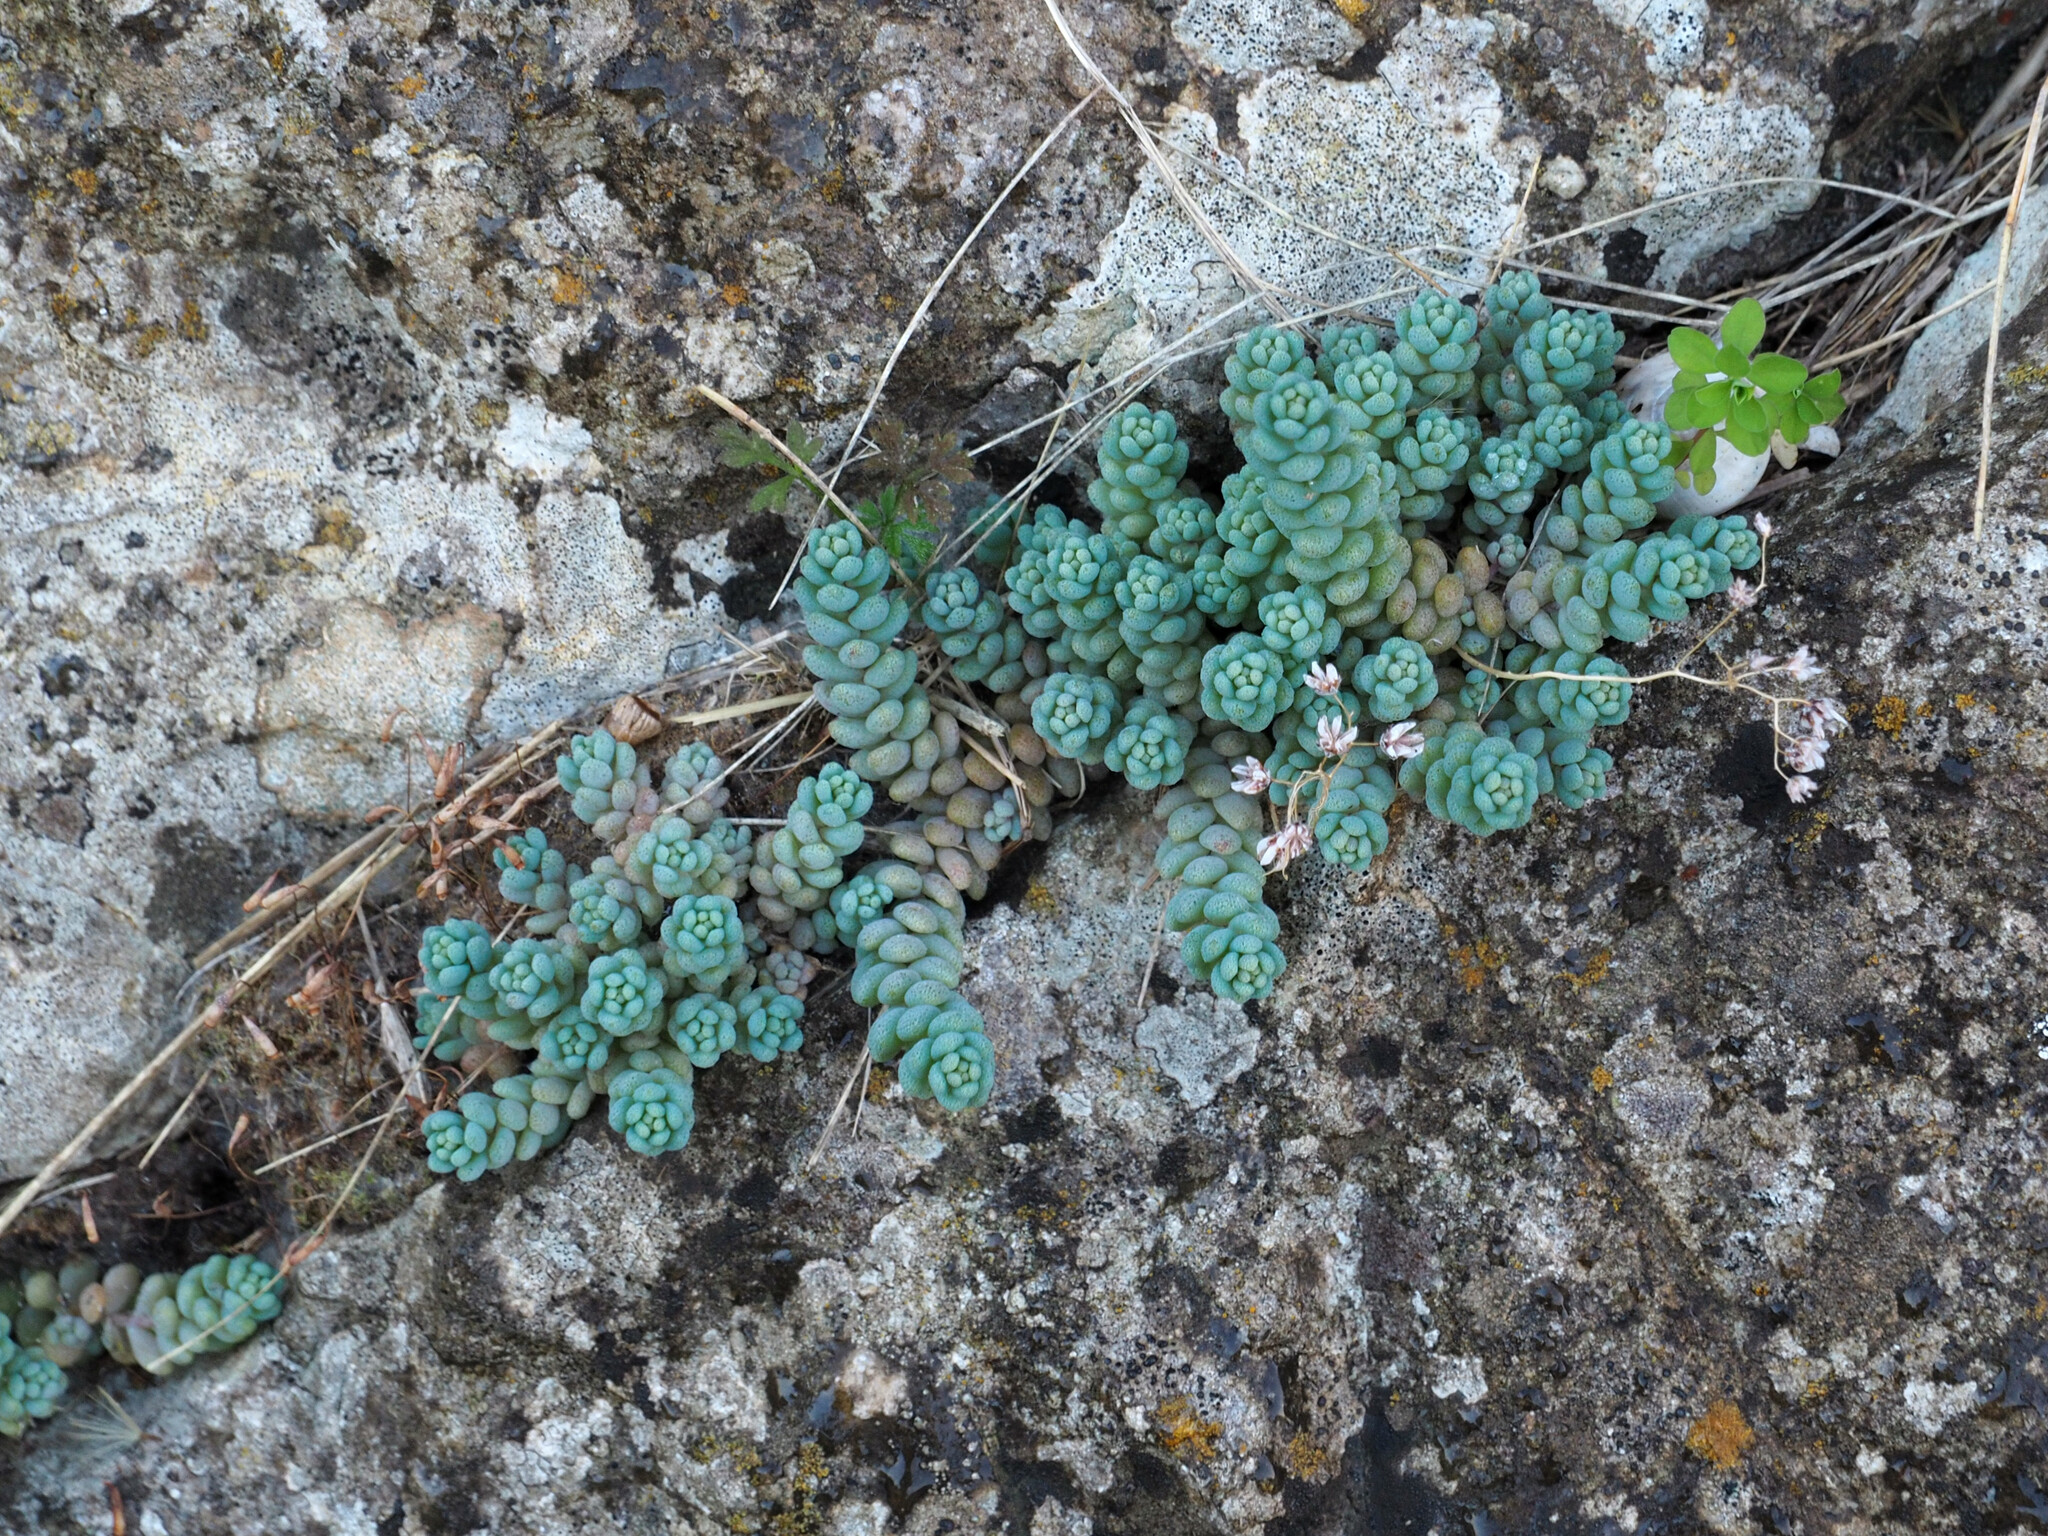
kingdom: Plantae
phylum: Tracheophyta
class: Magnoliopsida
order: Saxifragales
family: Crassulaceae
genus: Sedum
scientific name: Sedum dasyphyllum
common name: Thick-leaf stonecrop
